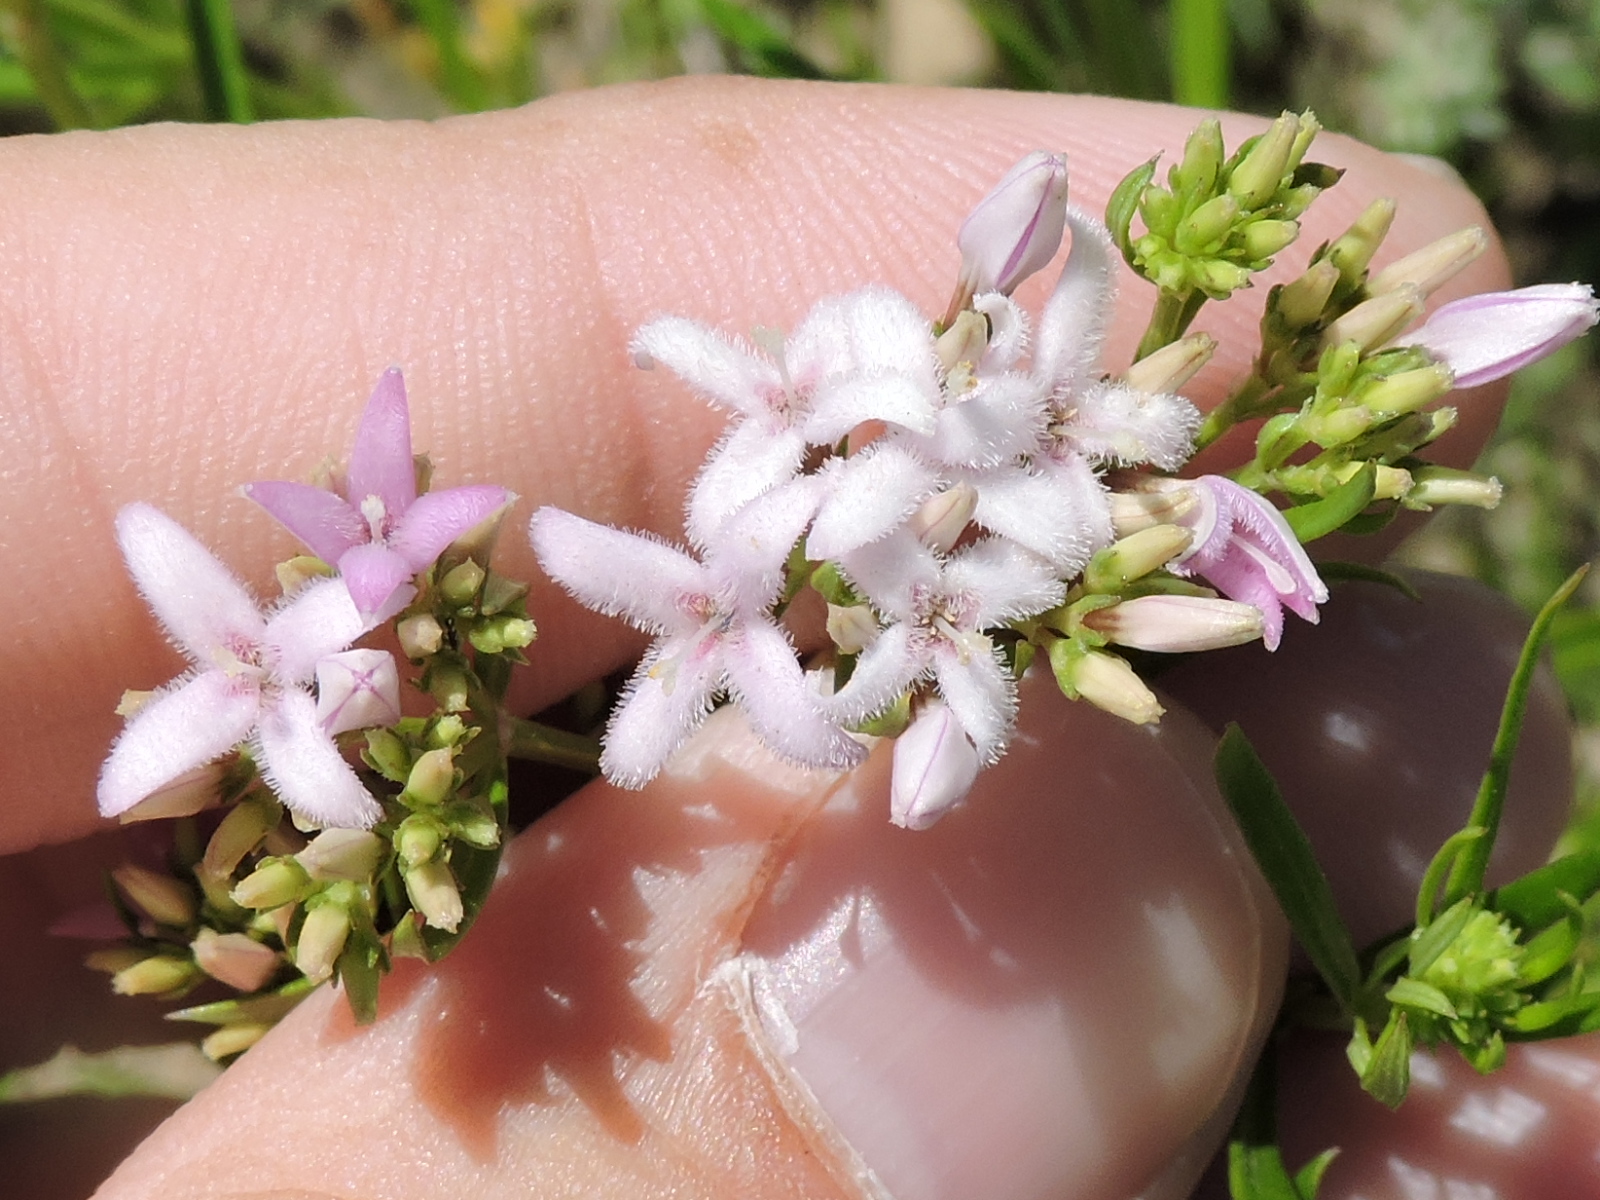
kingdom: Plantae
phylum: Tracheophyta
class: Magnoliopsida
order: Gentianales
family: Rubiaceae
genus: Stenaria
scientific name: Stenaria nigricans
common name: Diamondflowers
